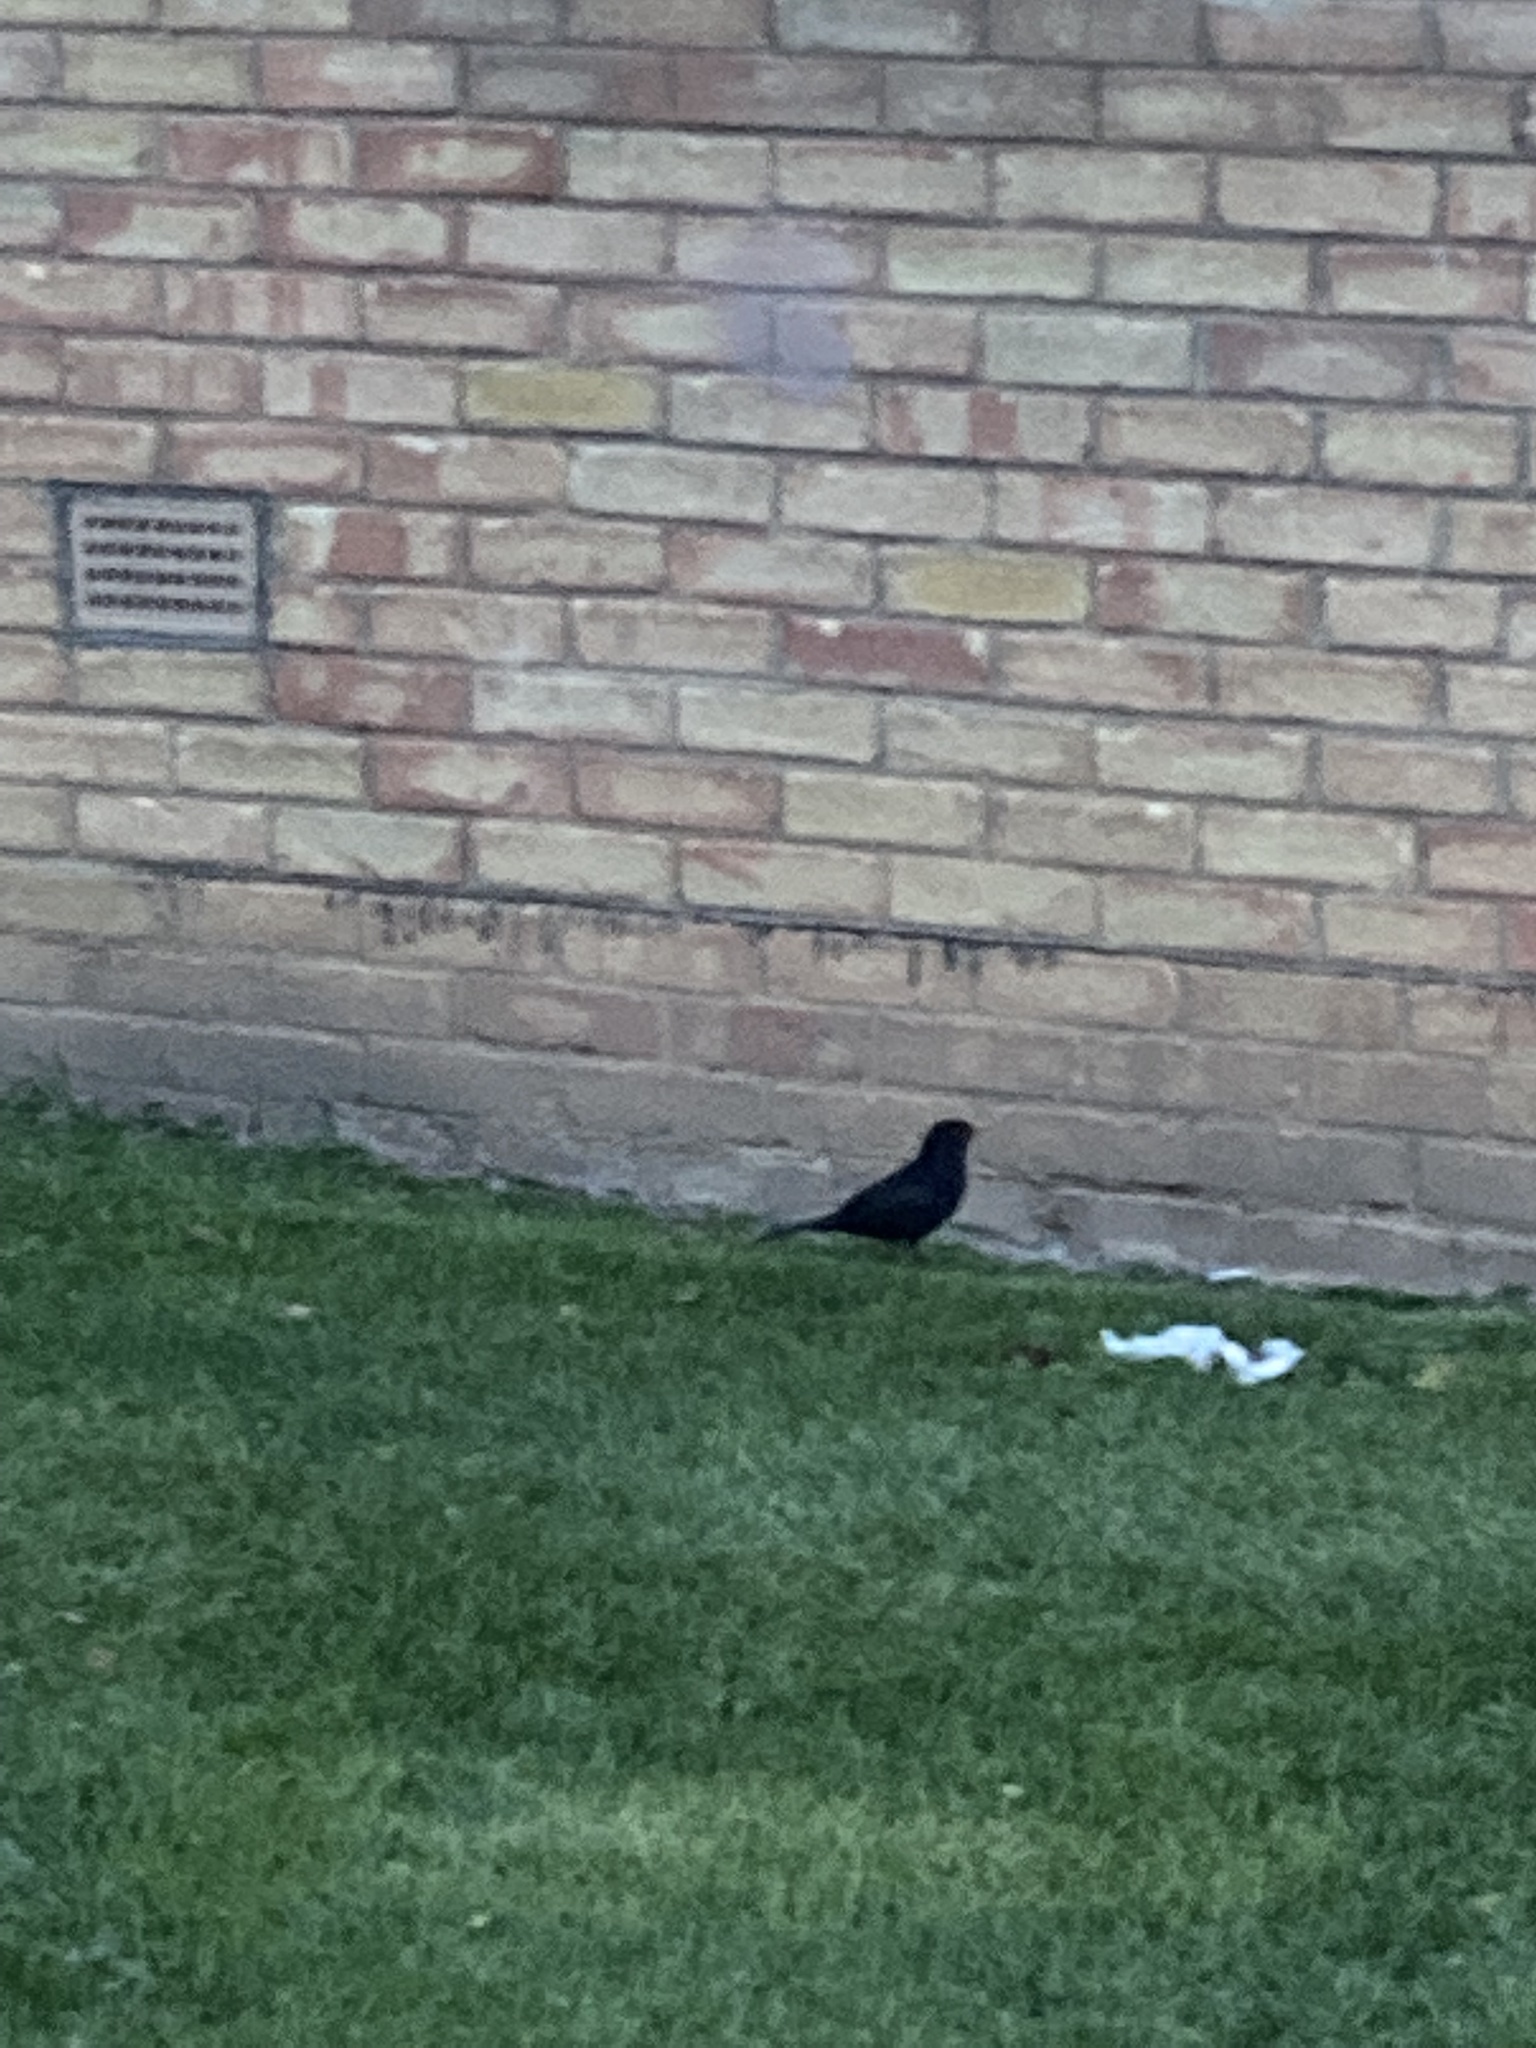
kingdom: Animalia
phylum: Chordata
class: Aves
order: Passeriformes
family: Turdidae
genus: Turdus
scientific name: Turdus merula
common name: Common blackbird
